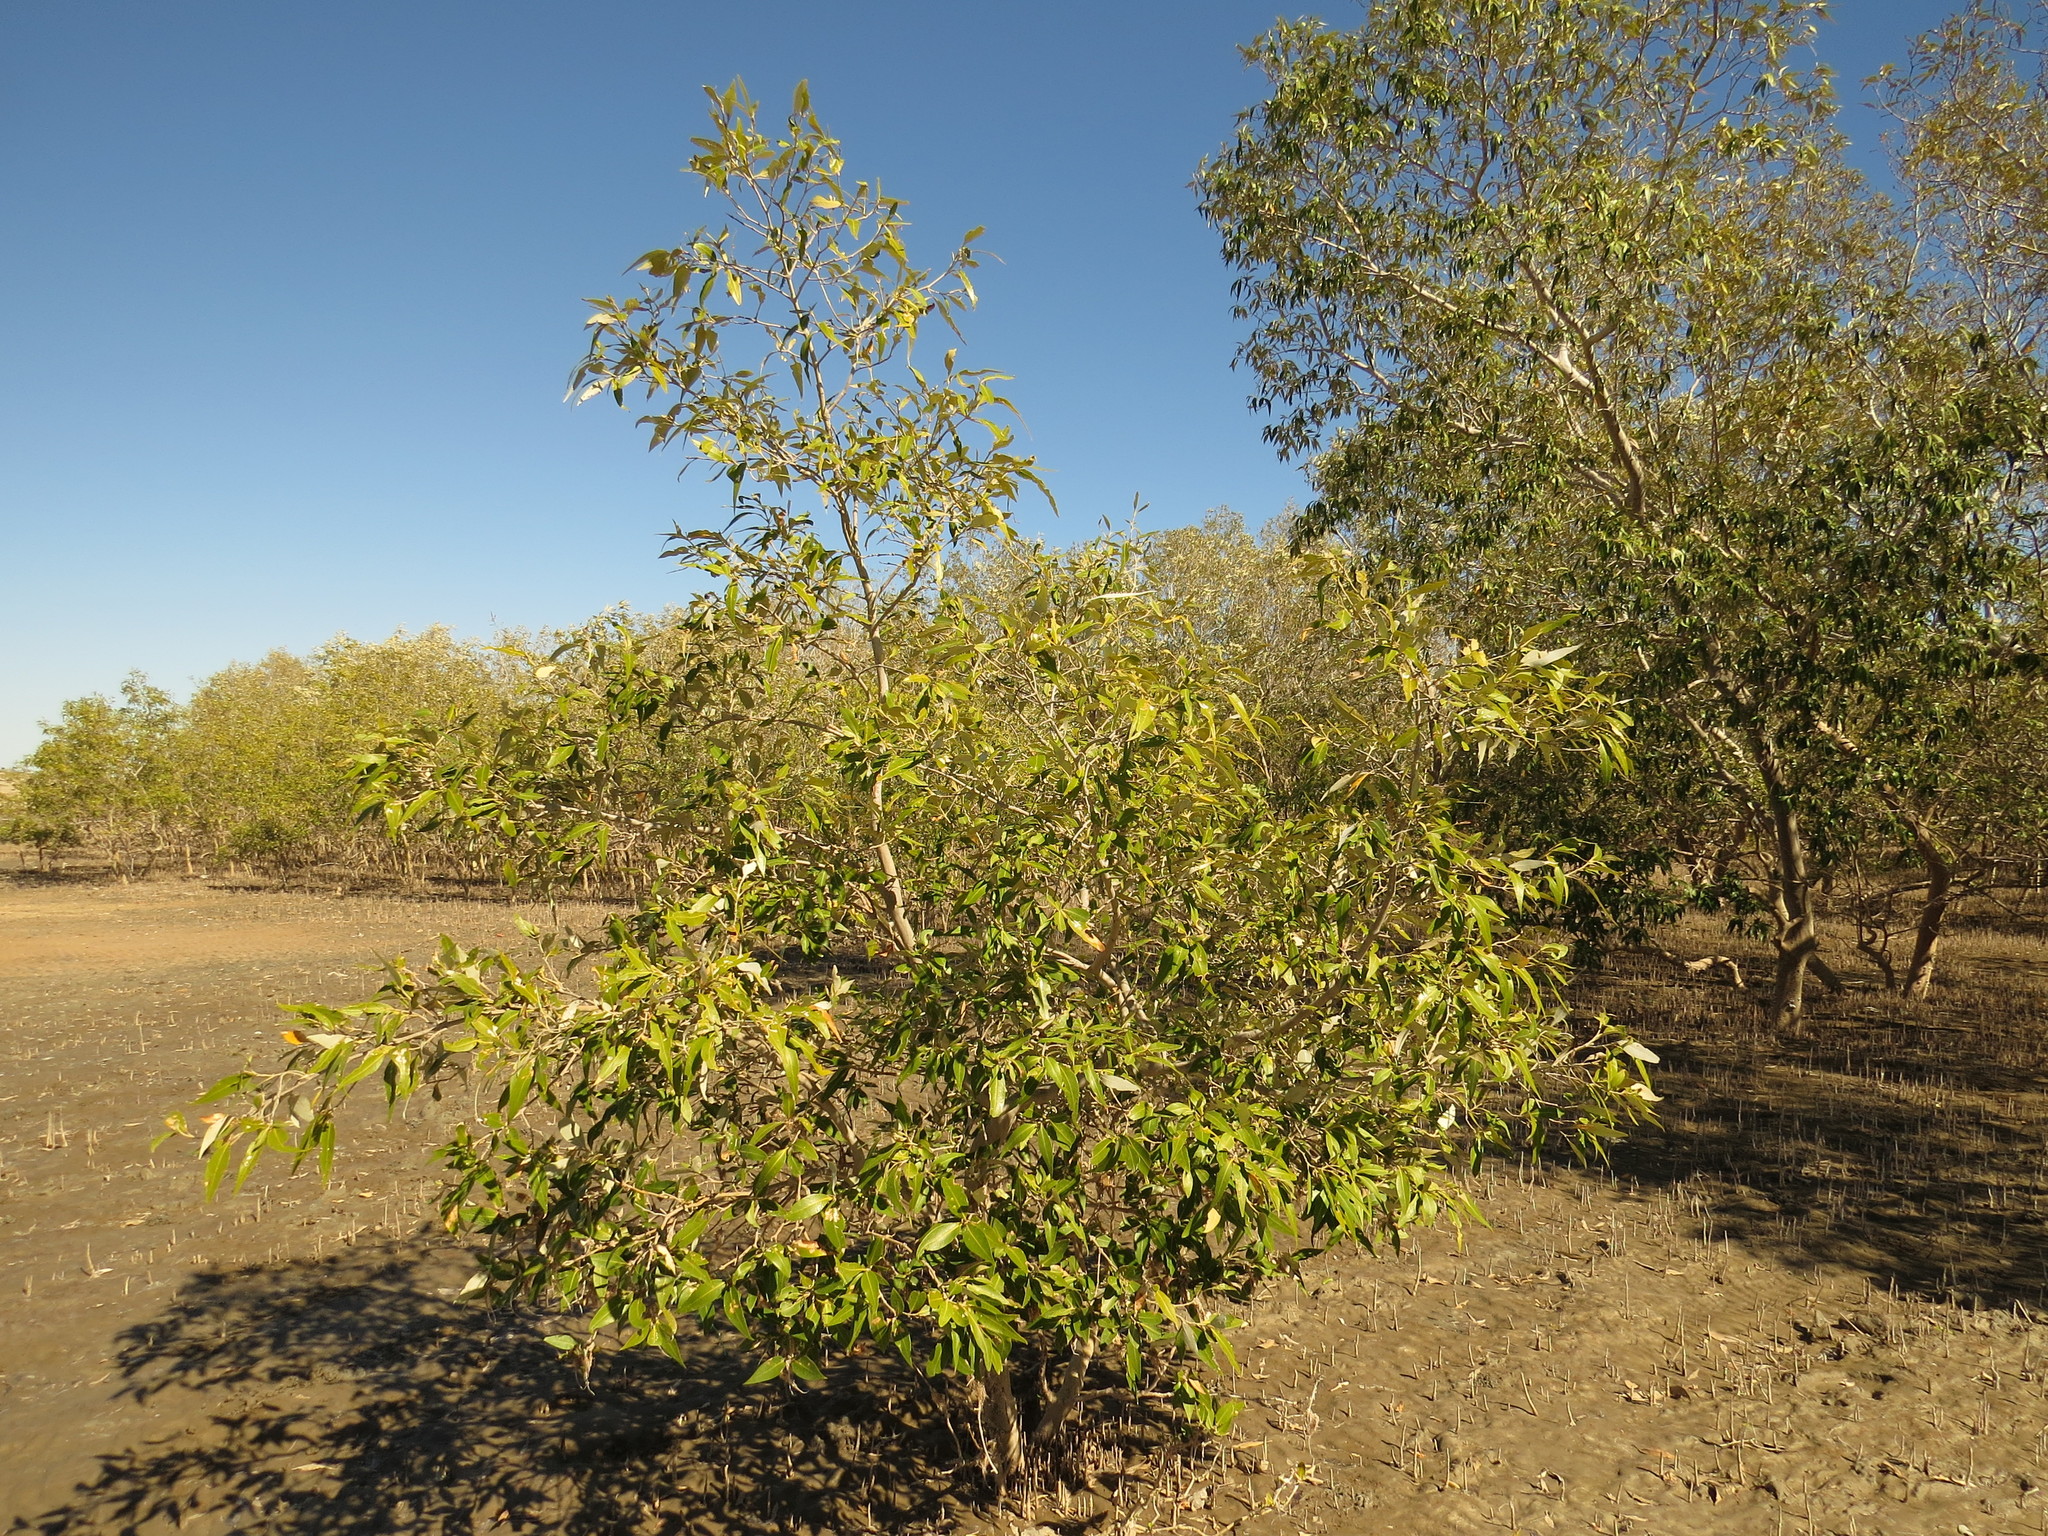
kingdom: Plantae
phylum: Tracheophyta
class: Magnoliopsida
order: Lamiales
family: Acanthaceae
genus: Avicennia
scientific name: Avicennia marina
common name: Gray mangrove
